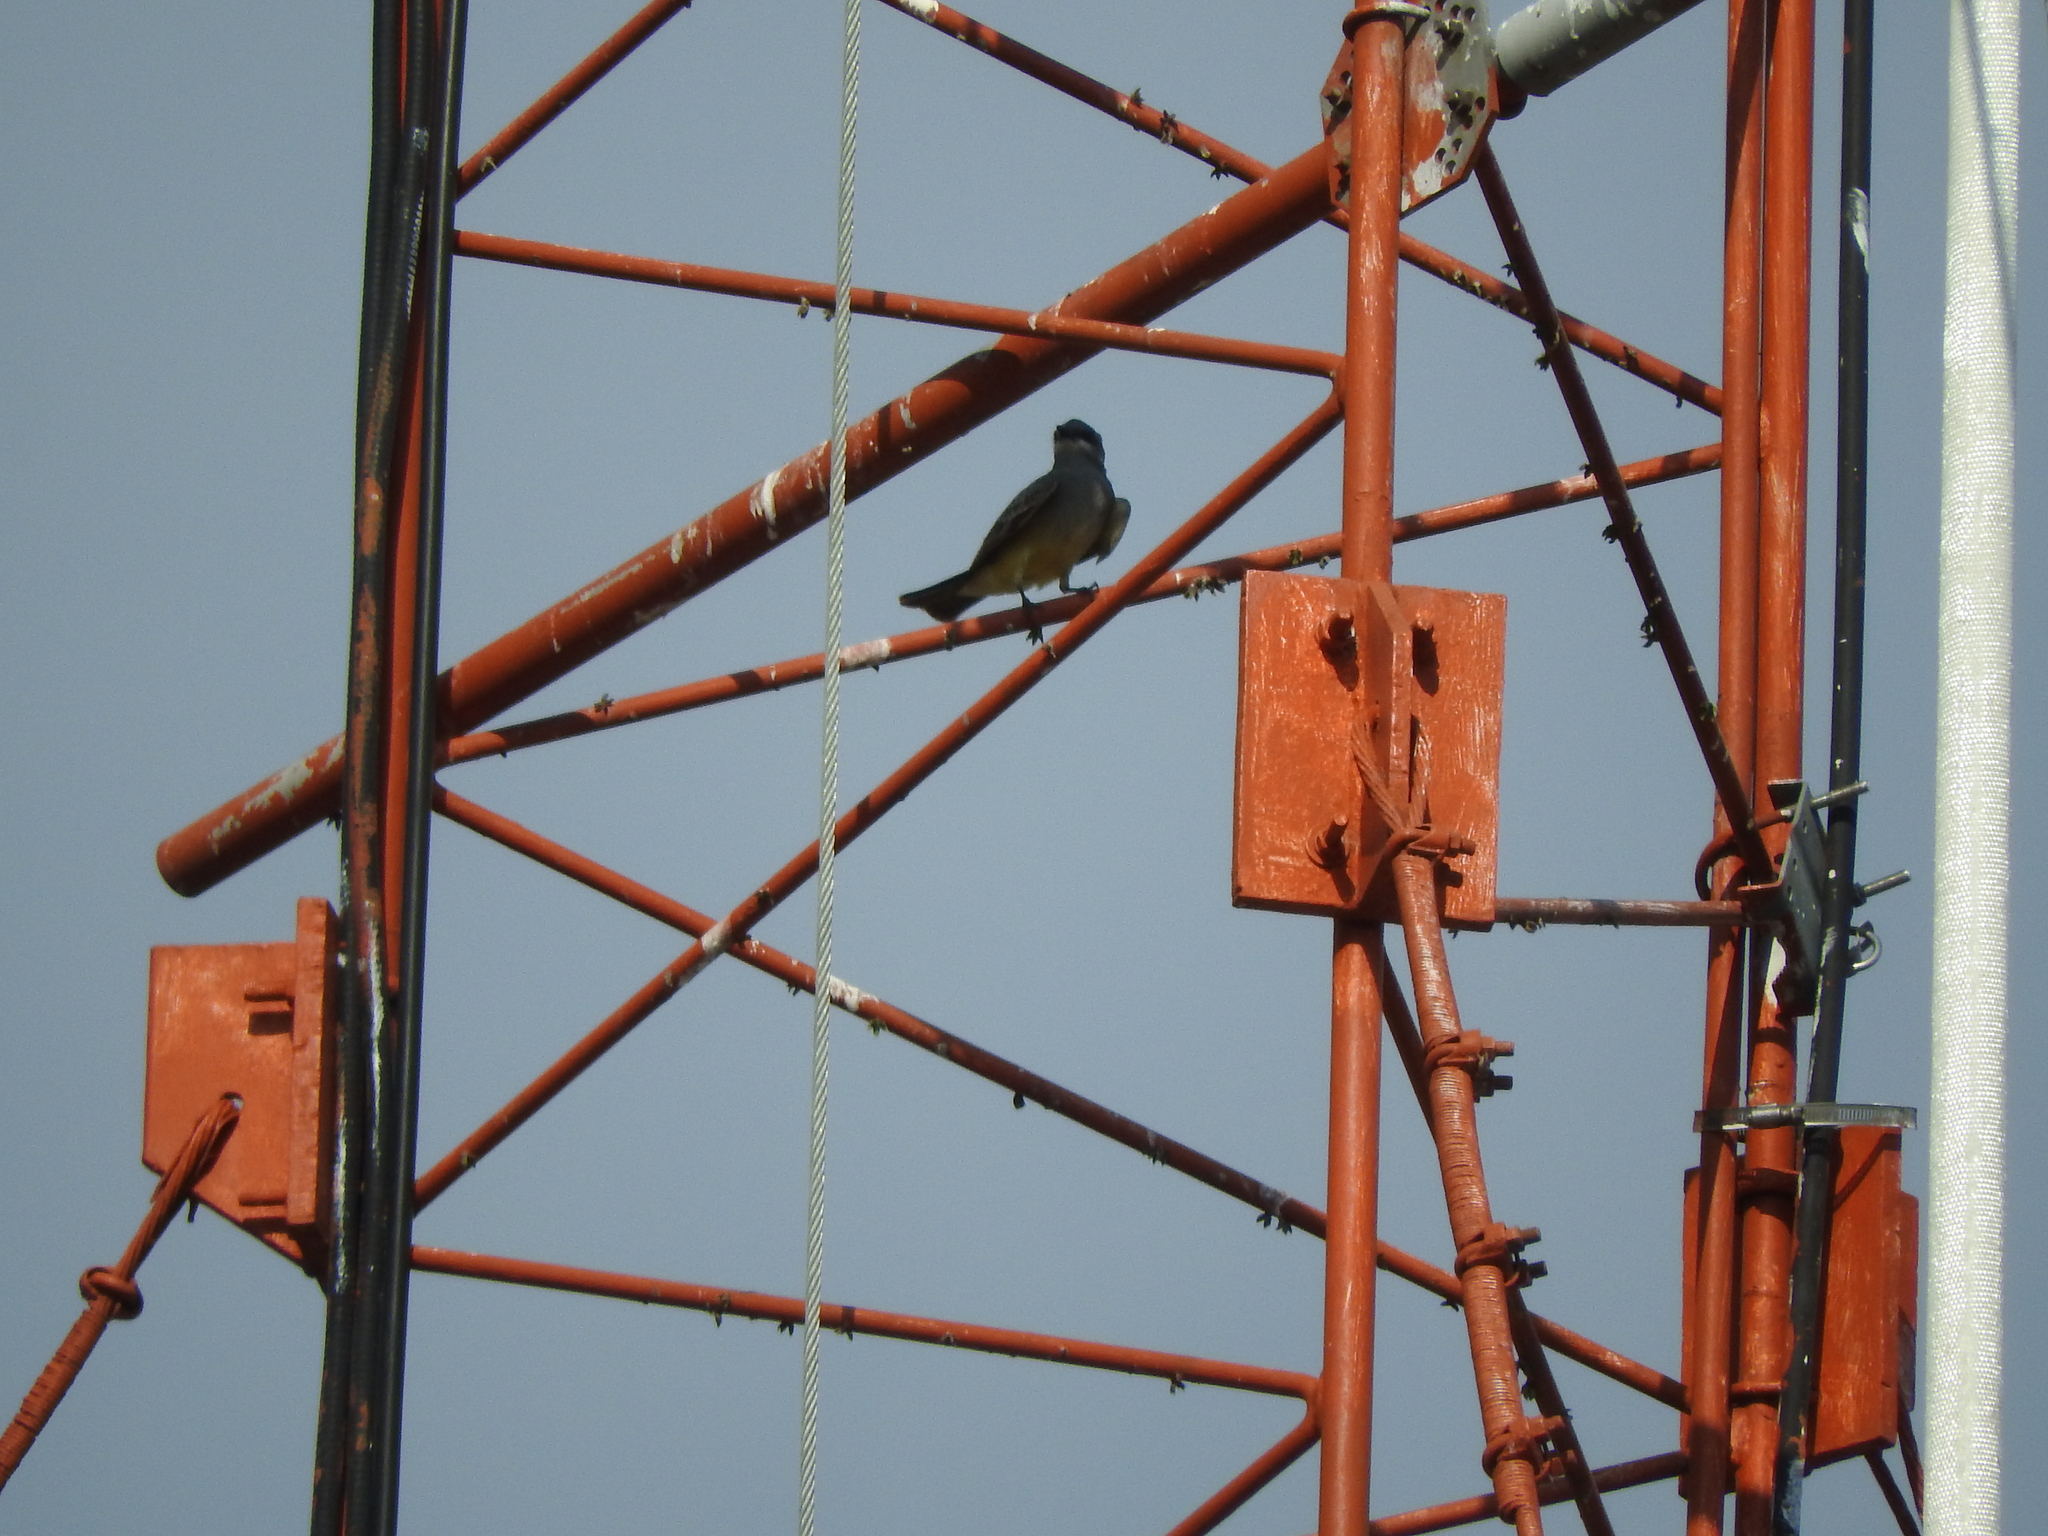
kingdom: Animalia
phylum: Chordata
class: Aves
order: Passeriformes
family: Tyrannidae
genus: Tyrannus
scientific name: Tyrannus vociferans
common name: Cassin's kingbird
